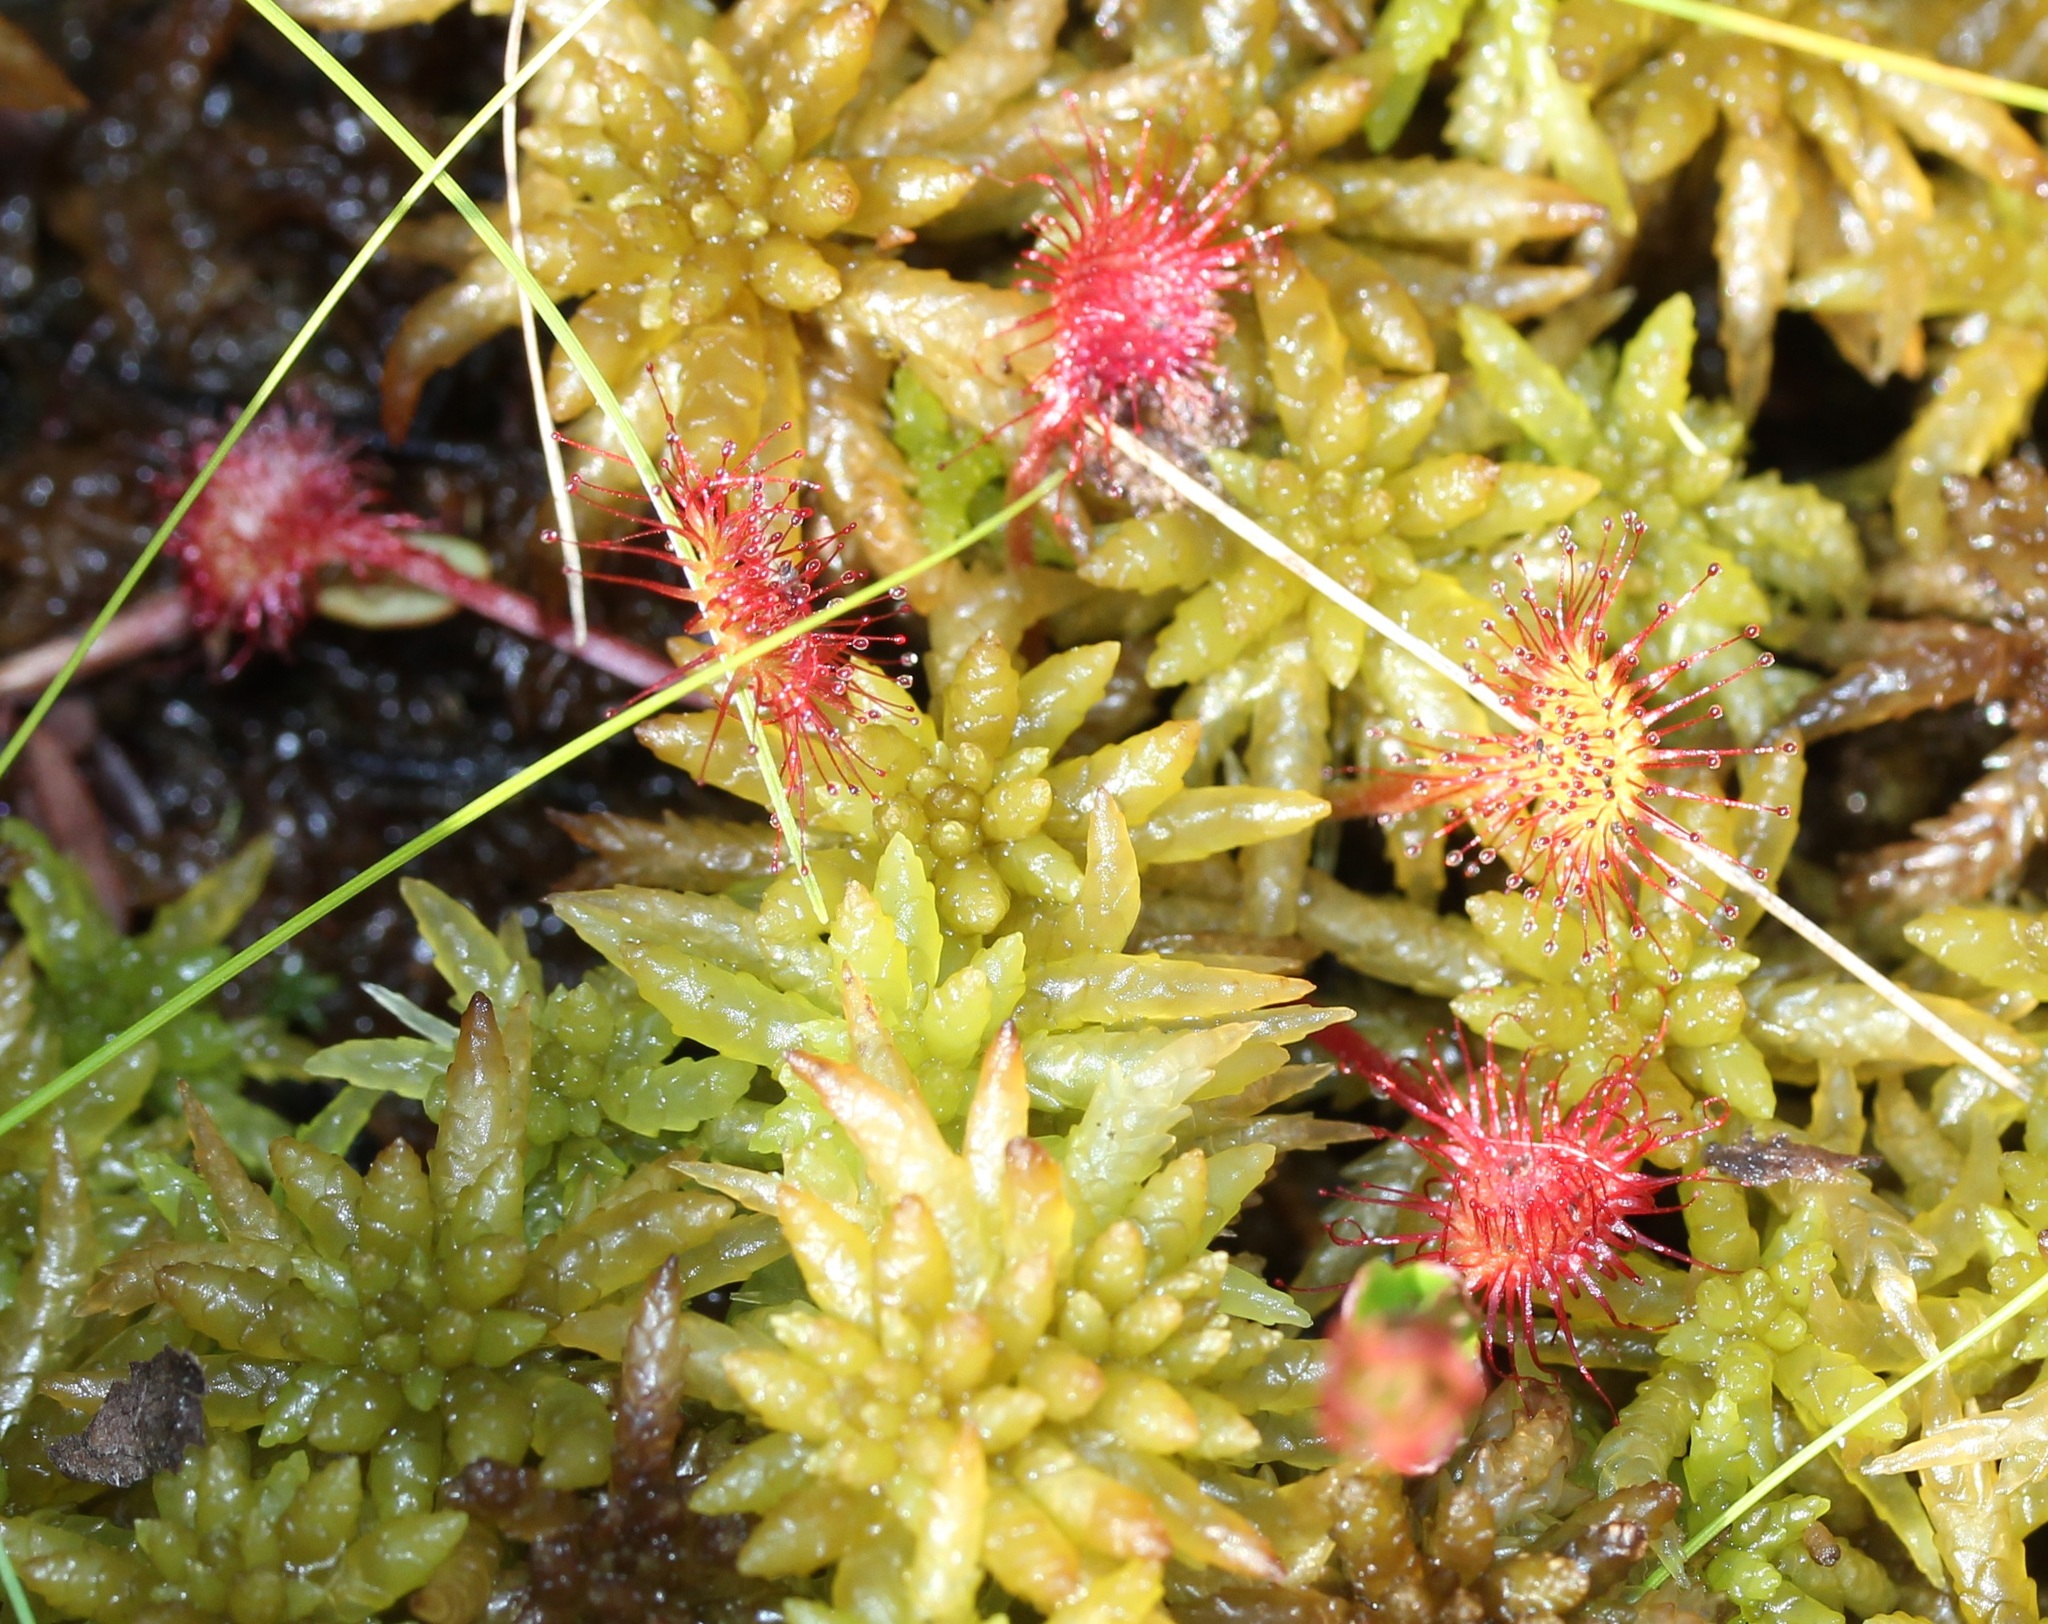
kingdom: Plantae
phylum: Tracheophyta
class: Magnoliopsida
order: Caryophyllales
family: Droseraceae
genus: Drosera
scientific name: Drosera rotundifolia
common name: Round-leaved sundew
